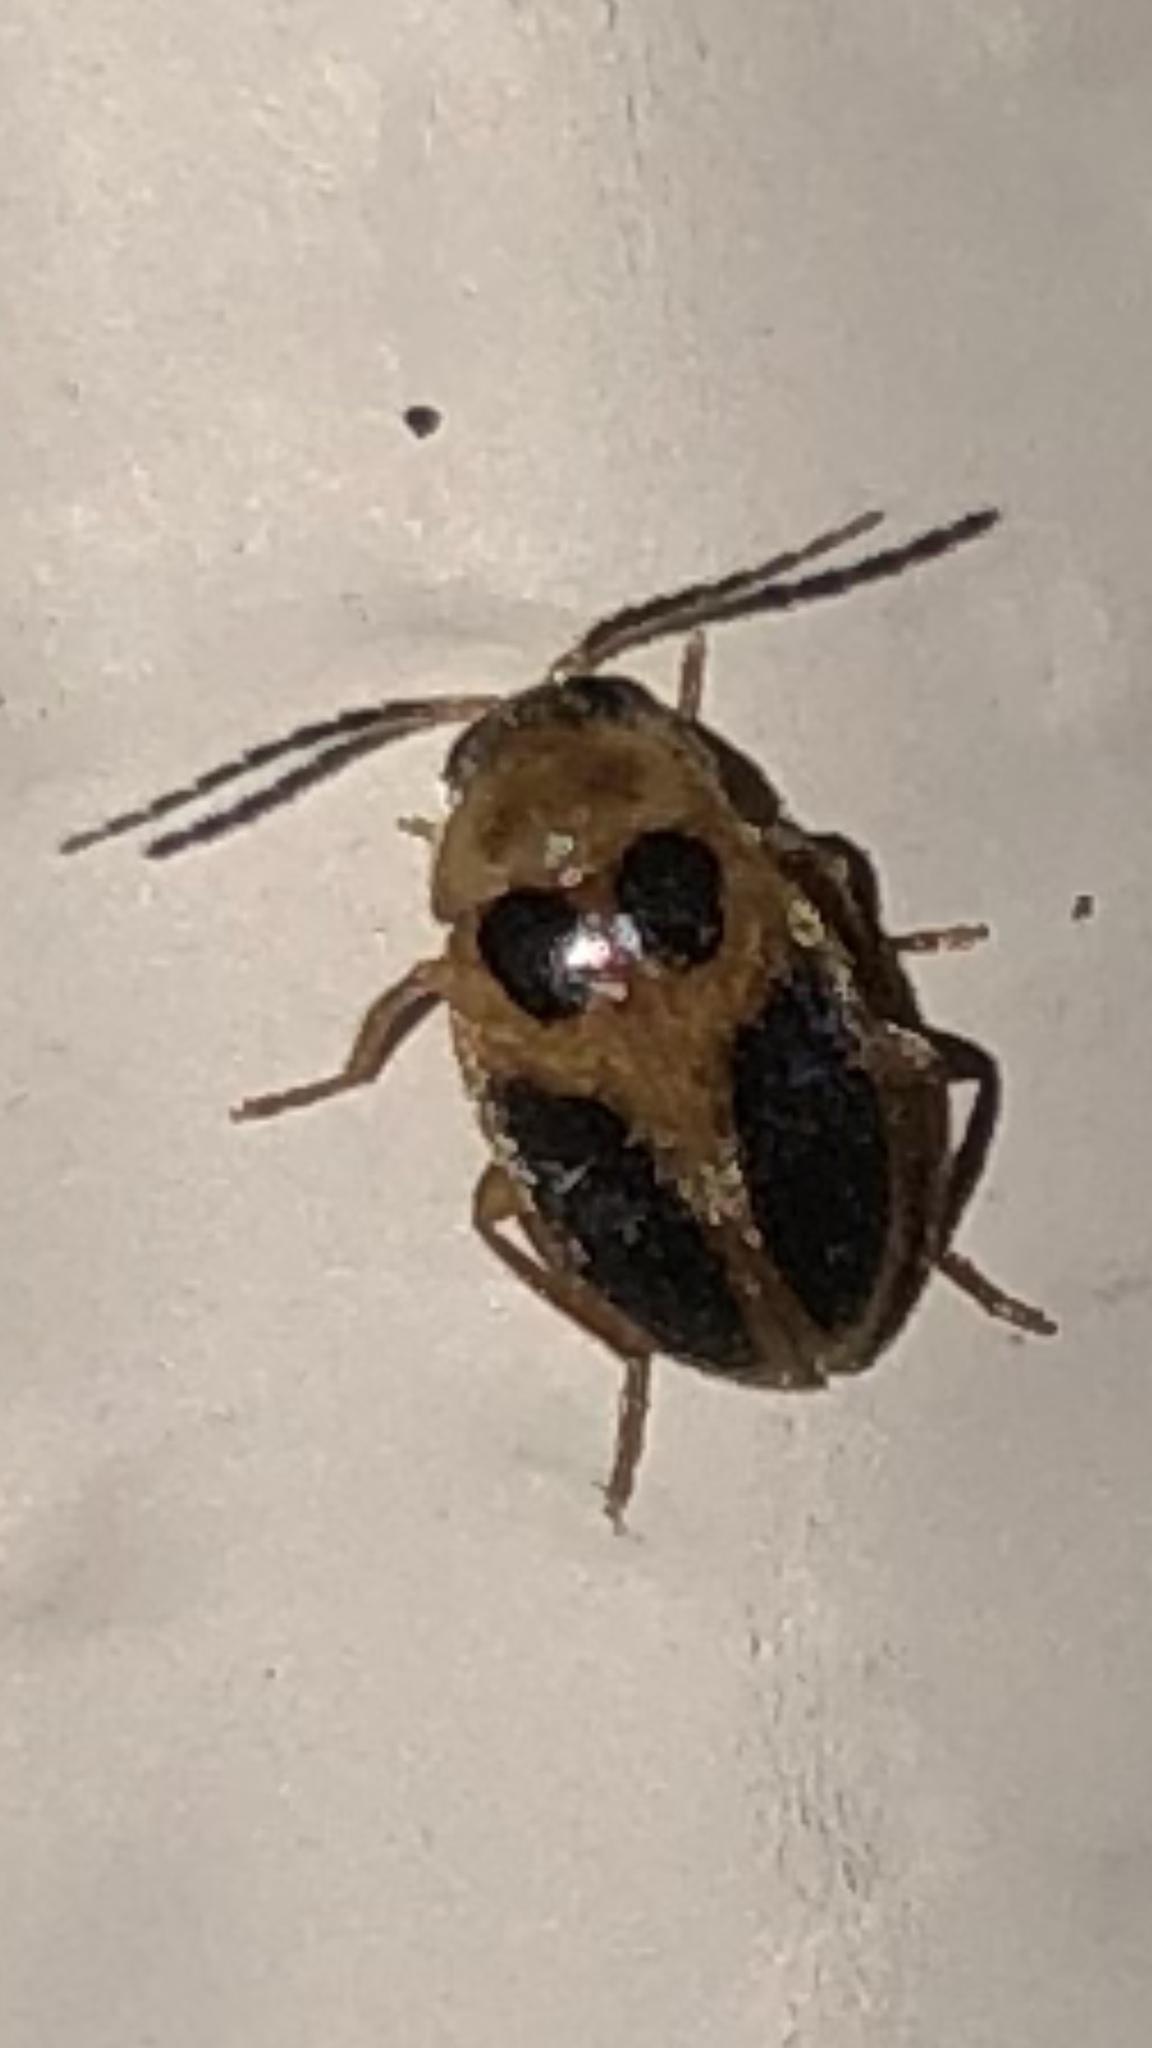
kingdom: Animalia
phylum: Arthropoda
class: Insecta
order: Coleoptera
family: Scirtidae
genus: Sacodes
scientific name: Sacodes pulchella
